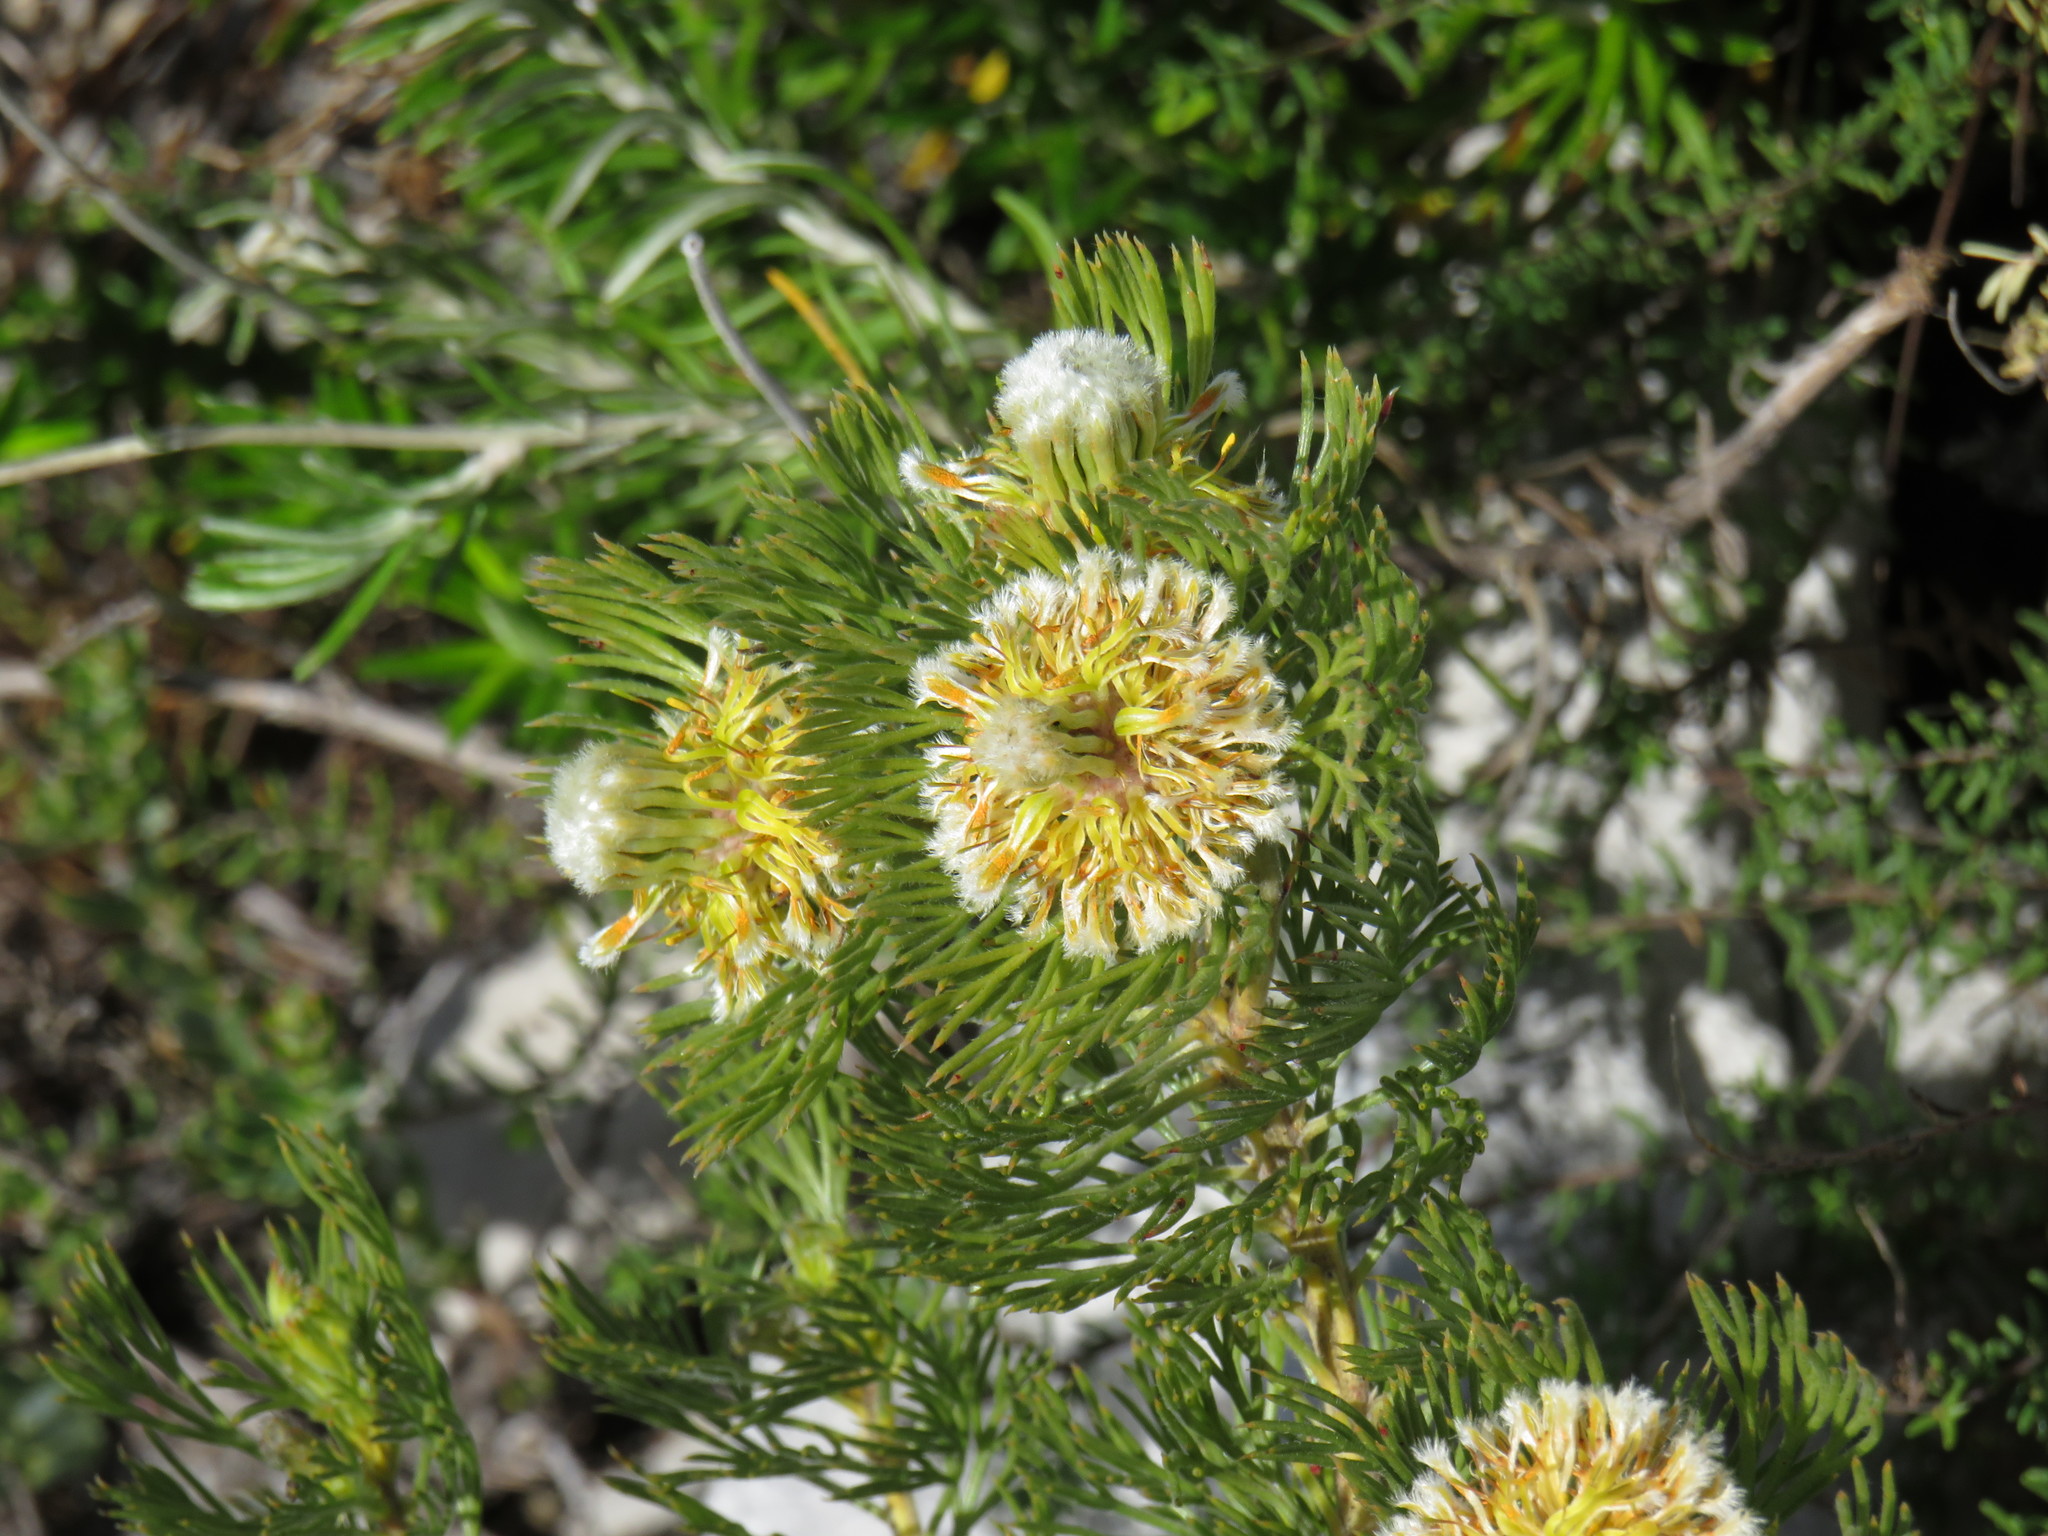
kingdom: Plantae
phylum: Tracheophyta
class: Magnoliopsida
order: Proteales
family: Proteaceae
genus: Serruria
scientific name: Serruria villosa
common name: Golden spiderhead
